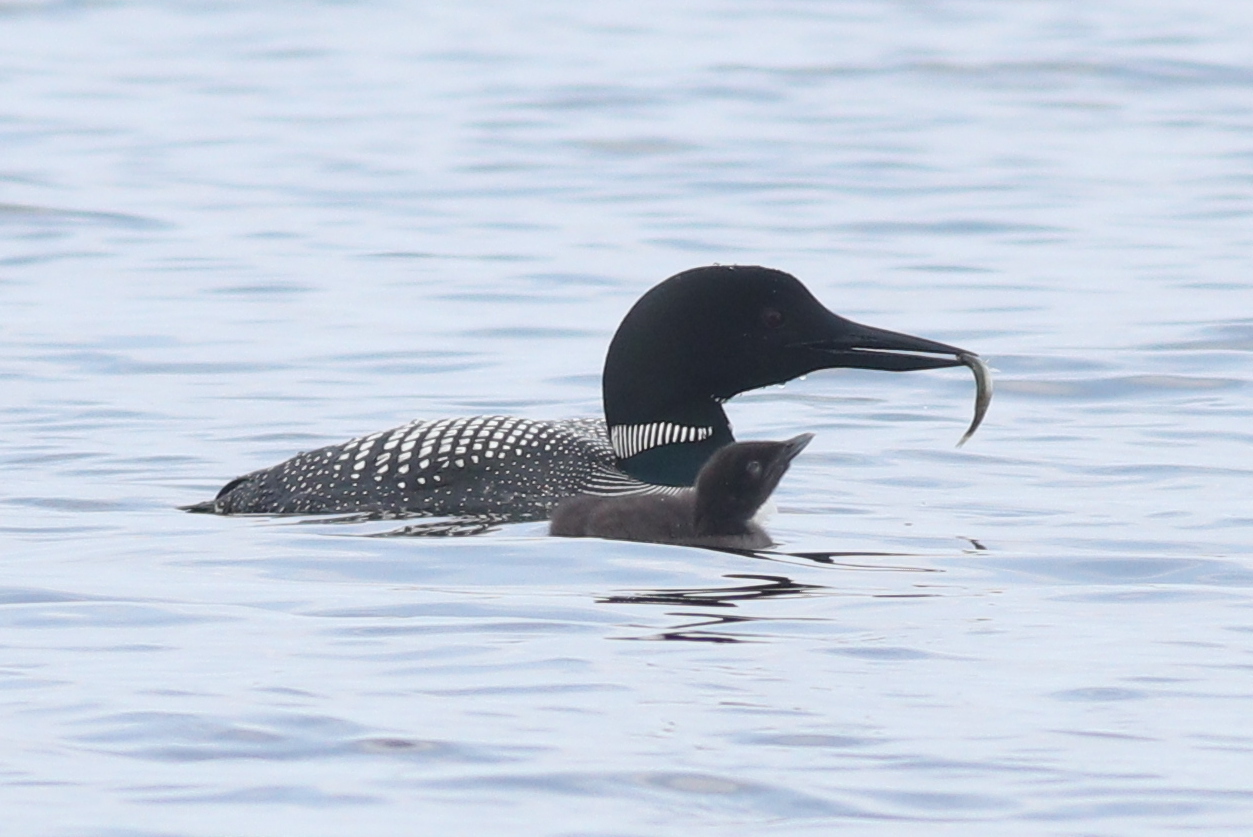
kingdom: Animalia
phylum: Chordata
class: Aves
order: Gaviiformes
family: Gaviidae
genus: Gavia
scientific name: Gavia immer
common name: Common loon
